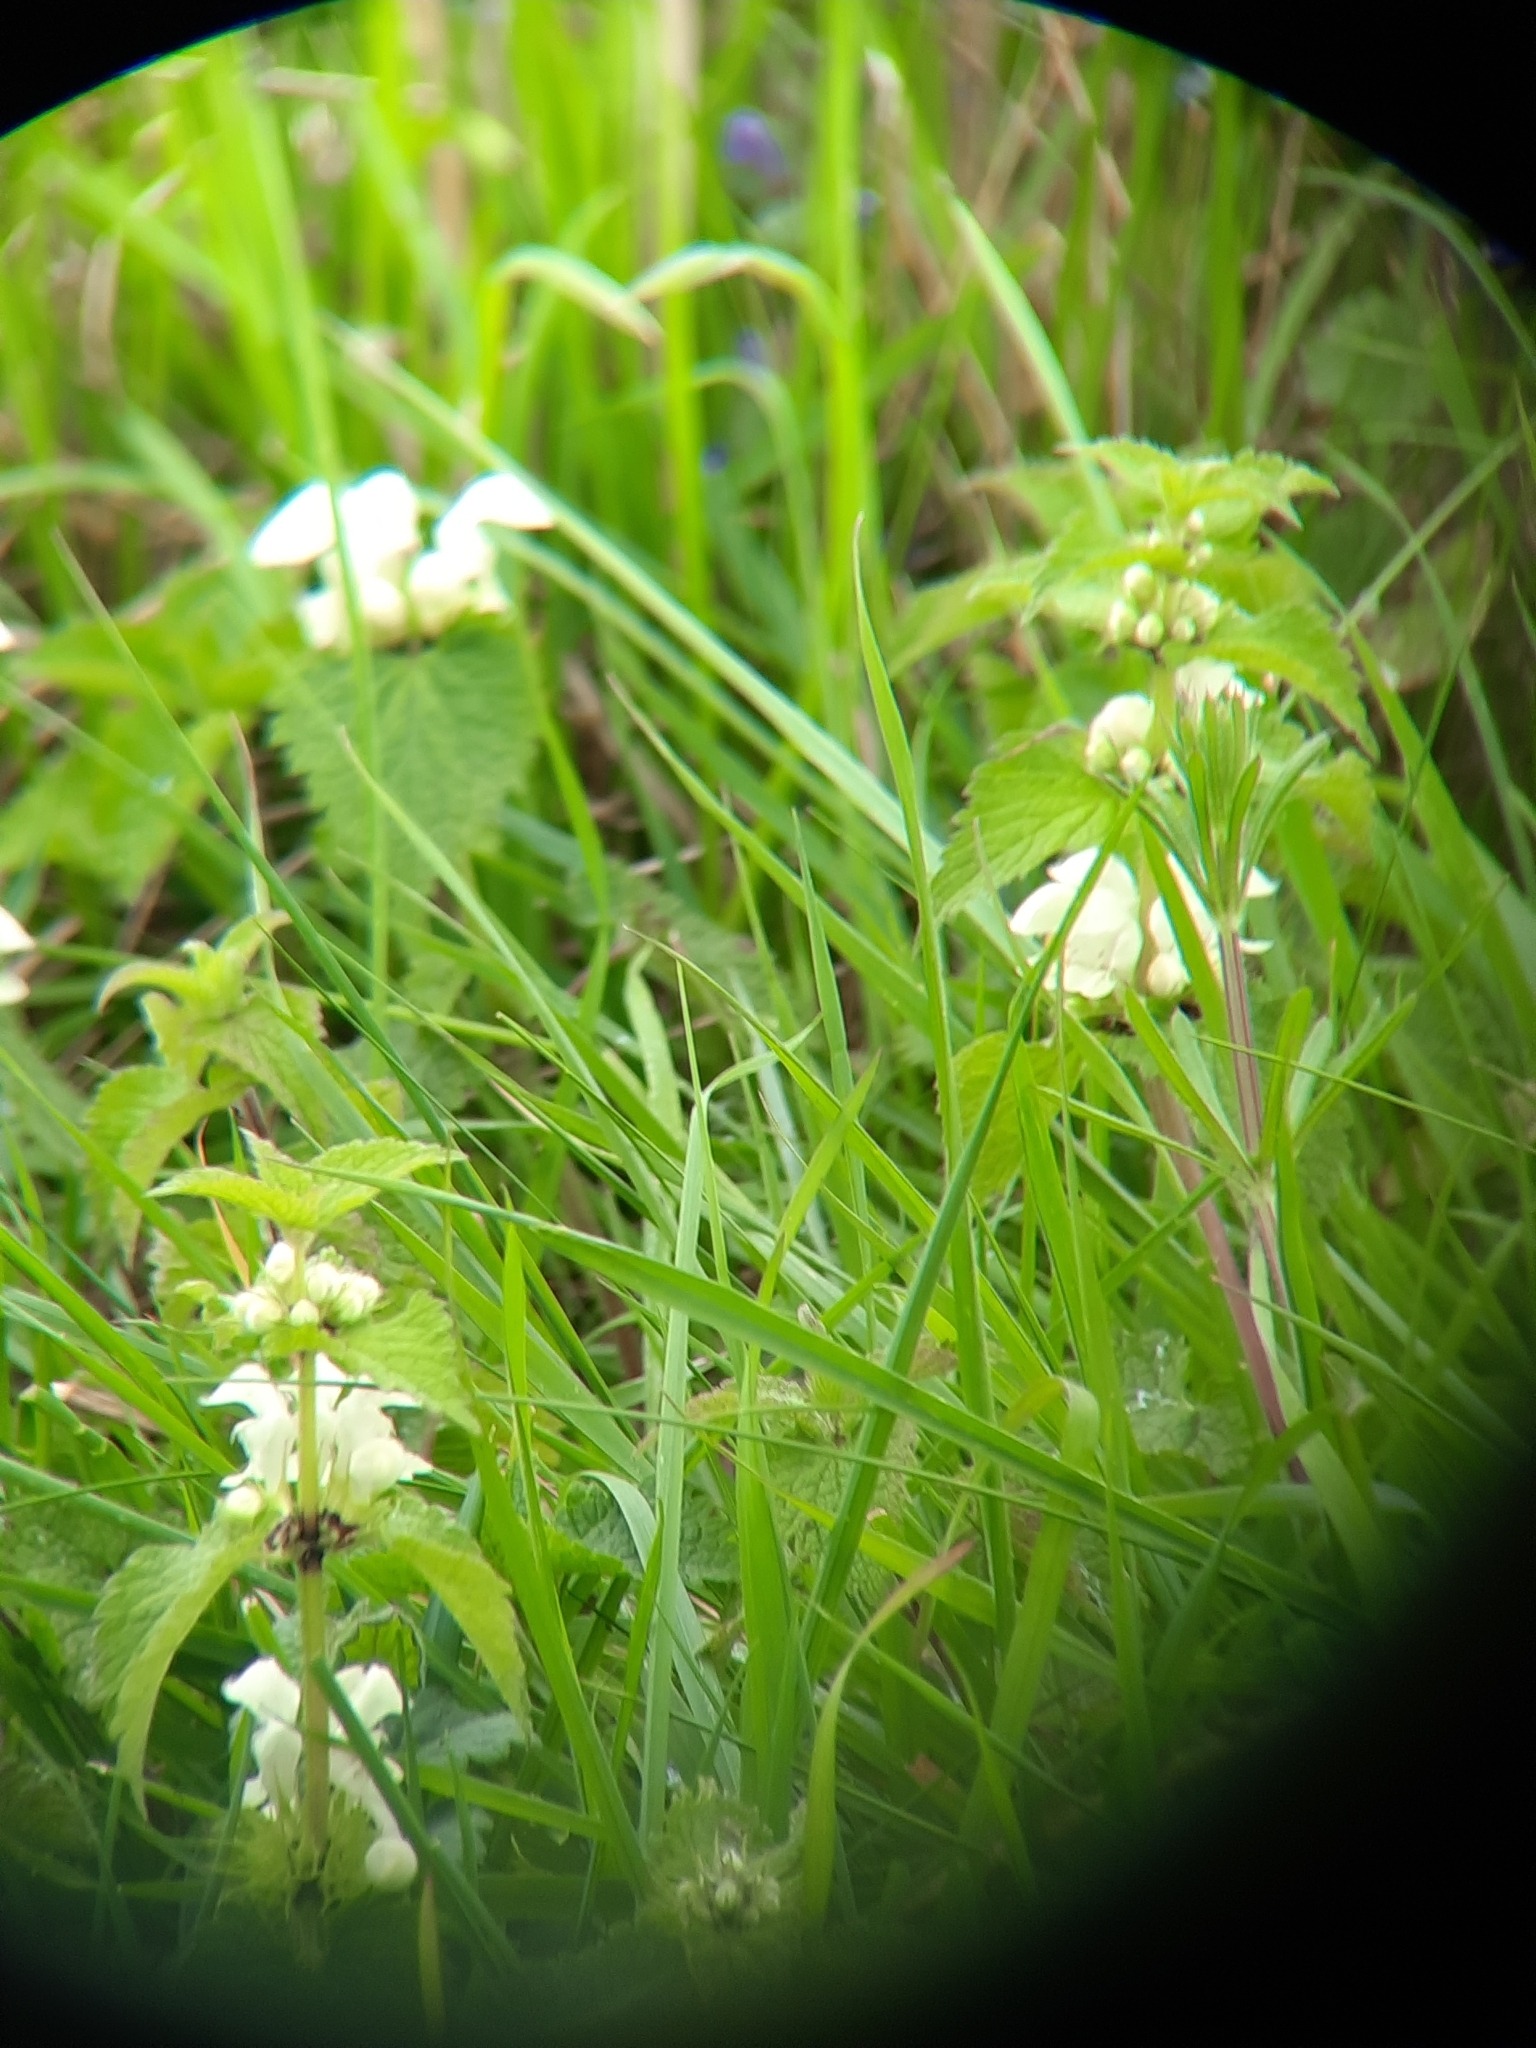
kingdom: Plantae
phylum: Tracheophyta
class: Magnoliopsida
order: Lamiales
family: Lamiaceae
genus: Lamium
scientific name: Lamium album
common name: White dead-nettle
